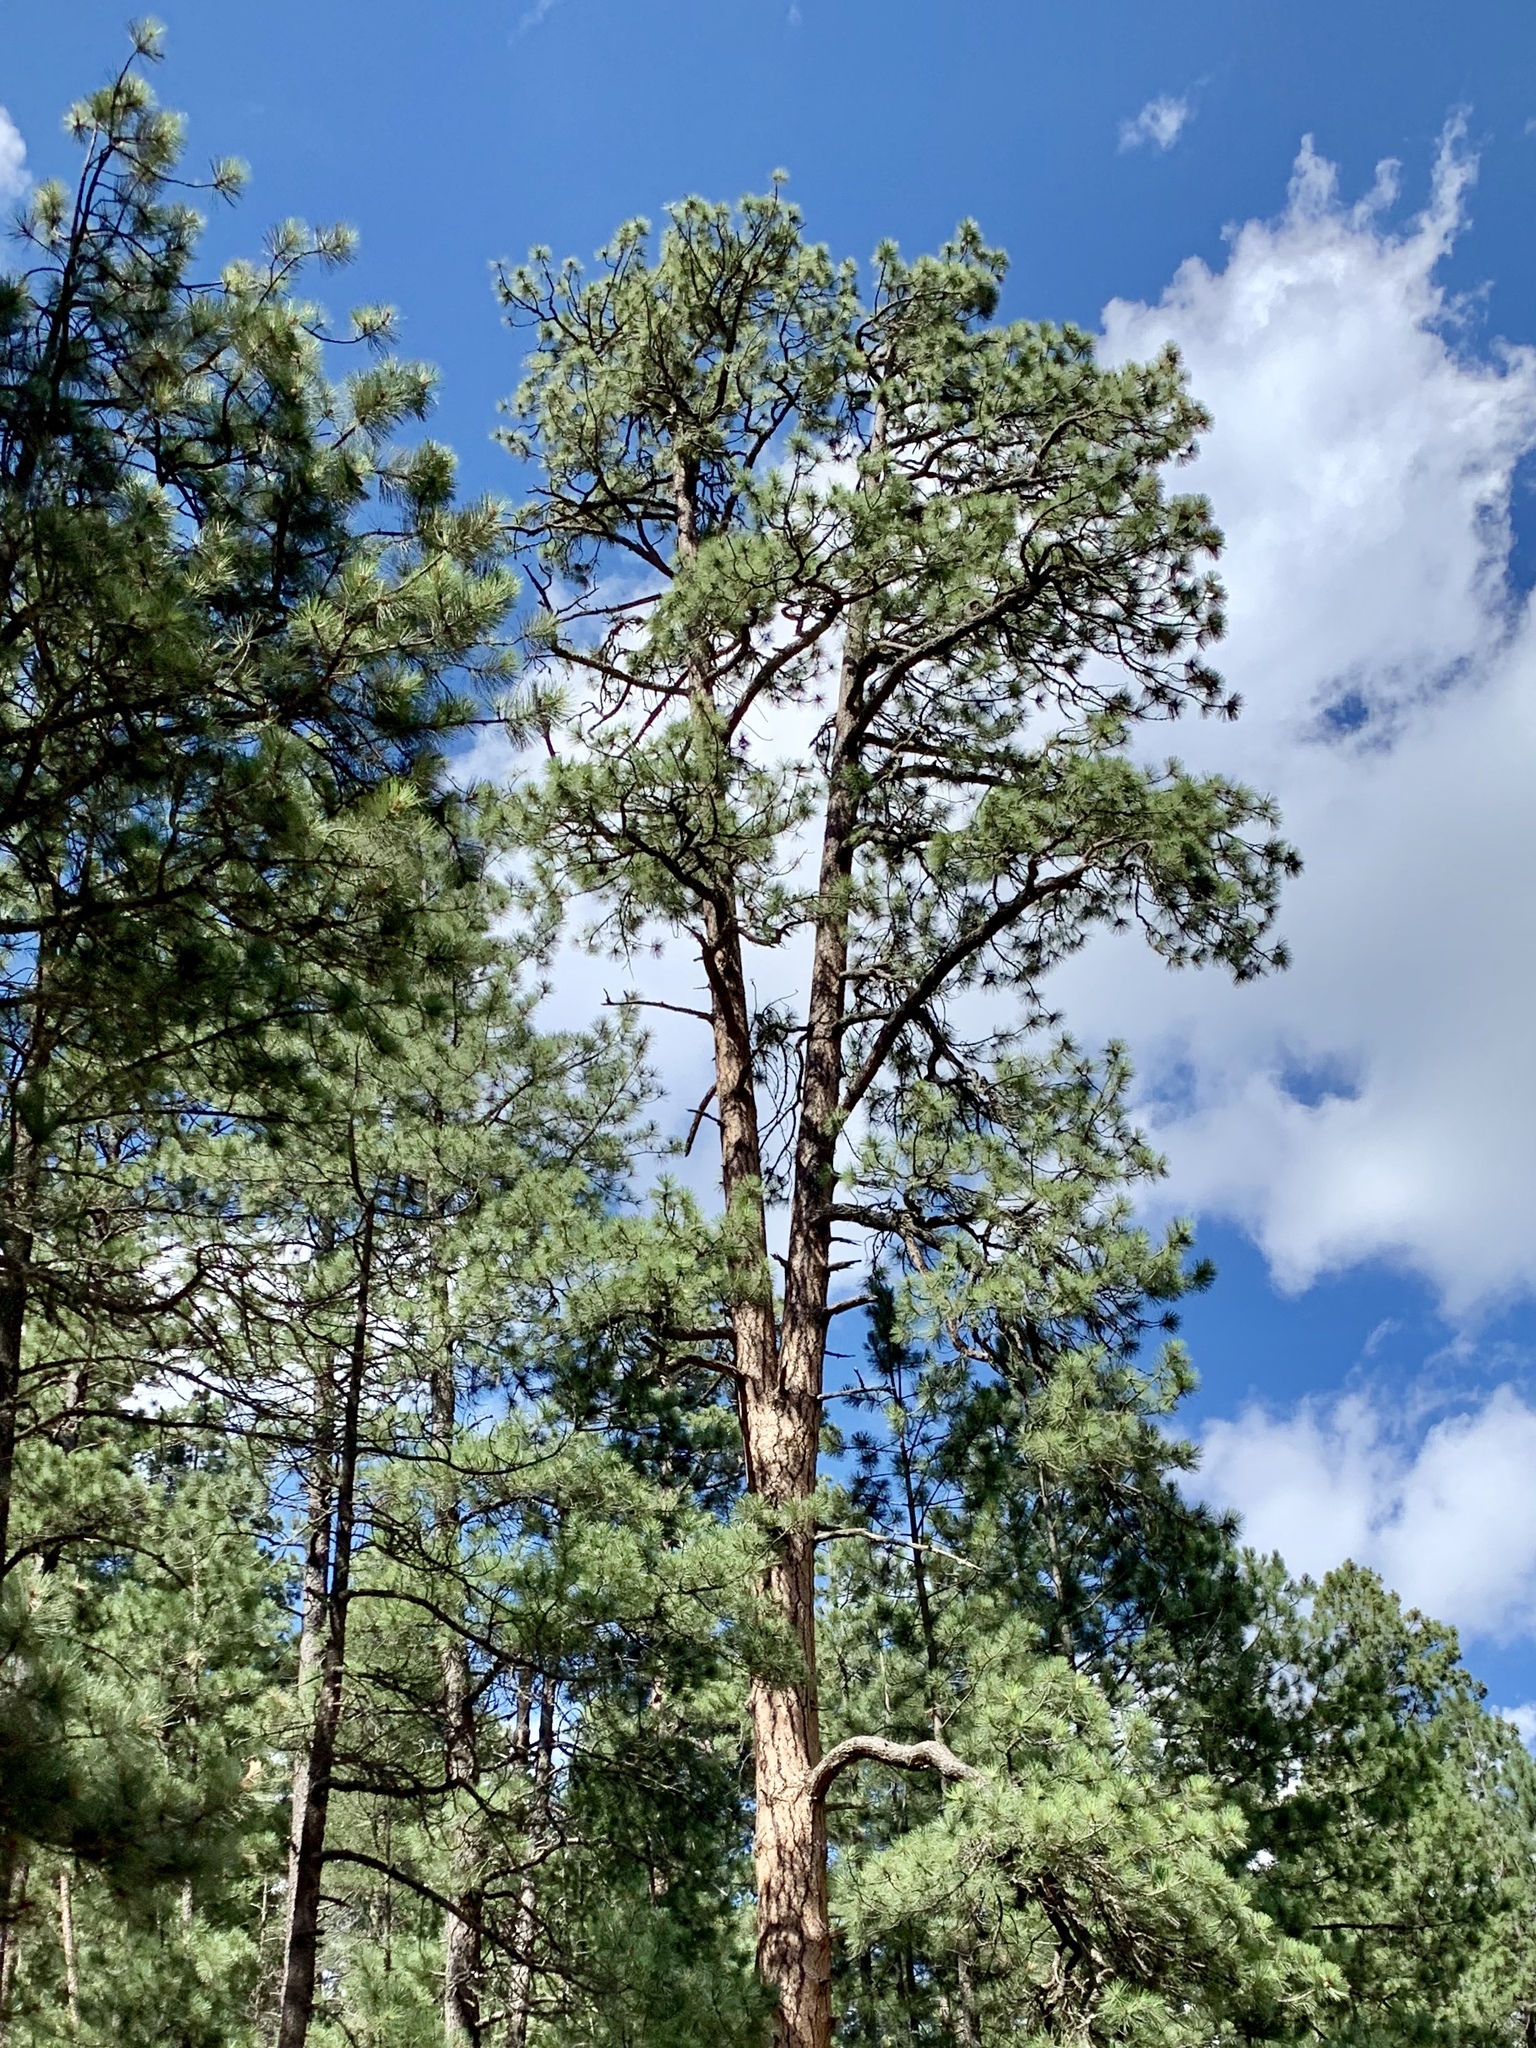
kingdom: Plantae
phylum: Tracheophyta
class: Pinopsida
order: Pinales
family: Pinaceae
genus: Pinus
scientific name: Pinus ponderosa
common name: Western yellow-pine
